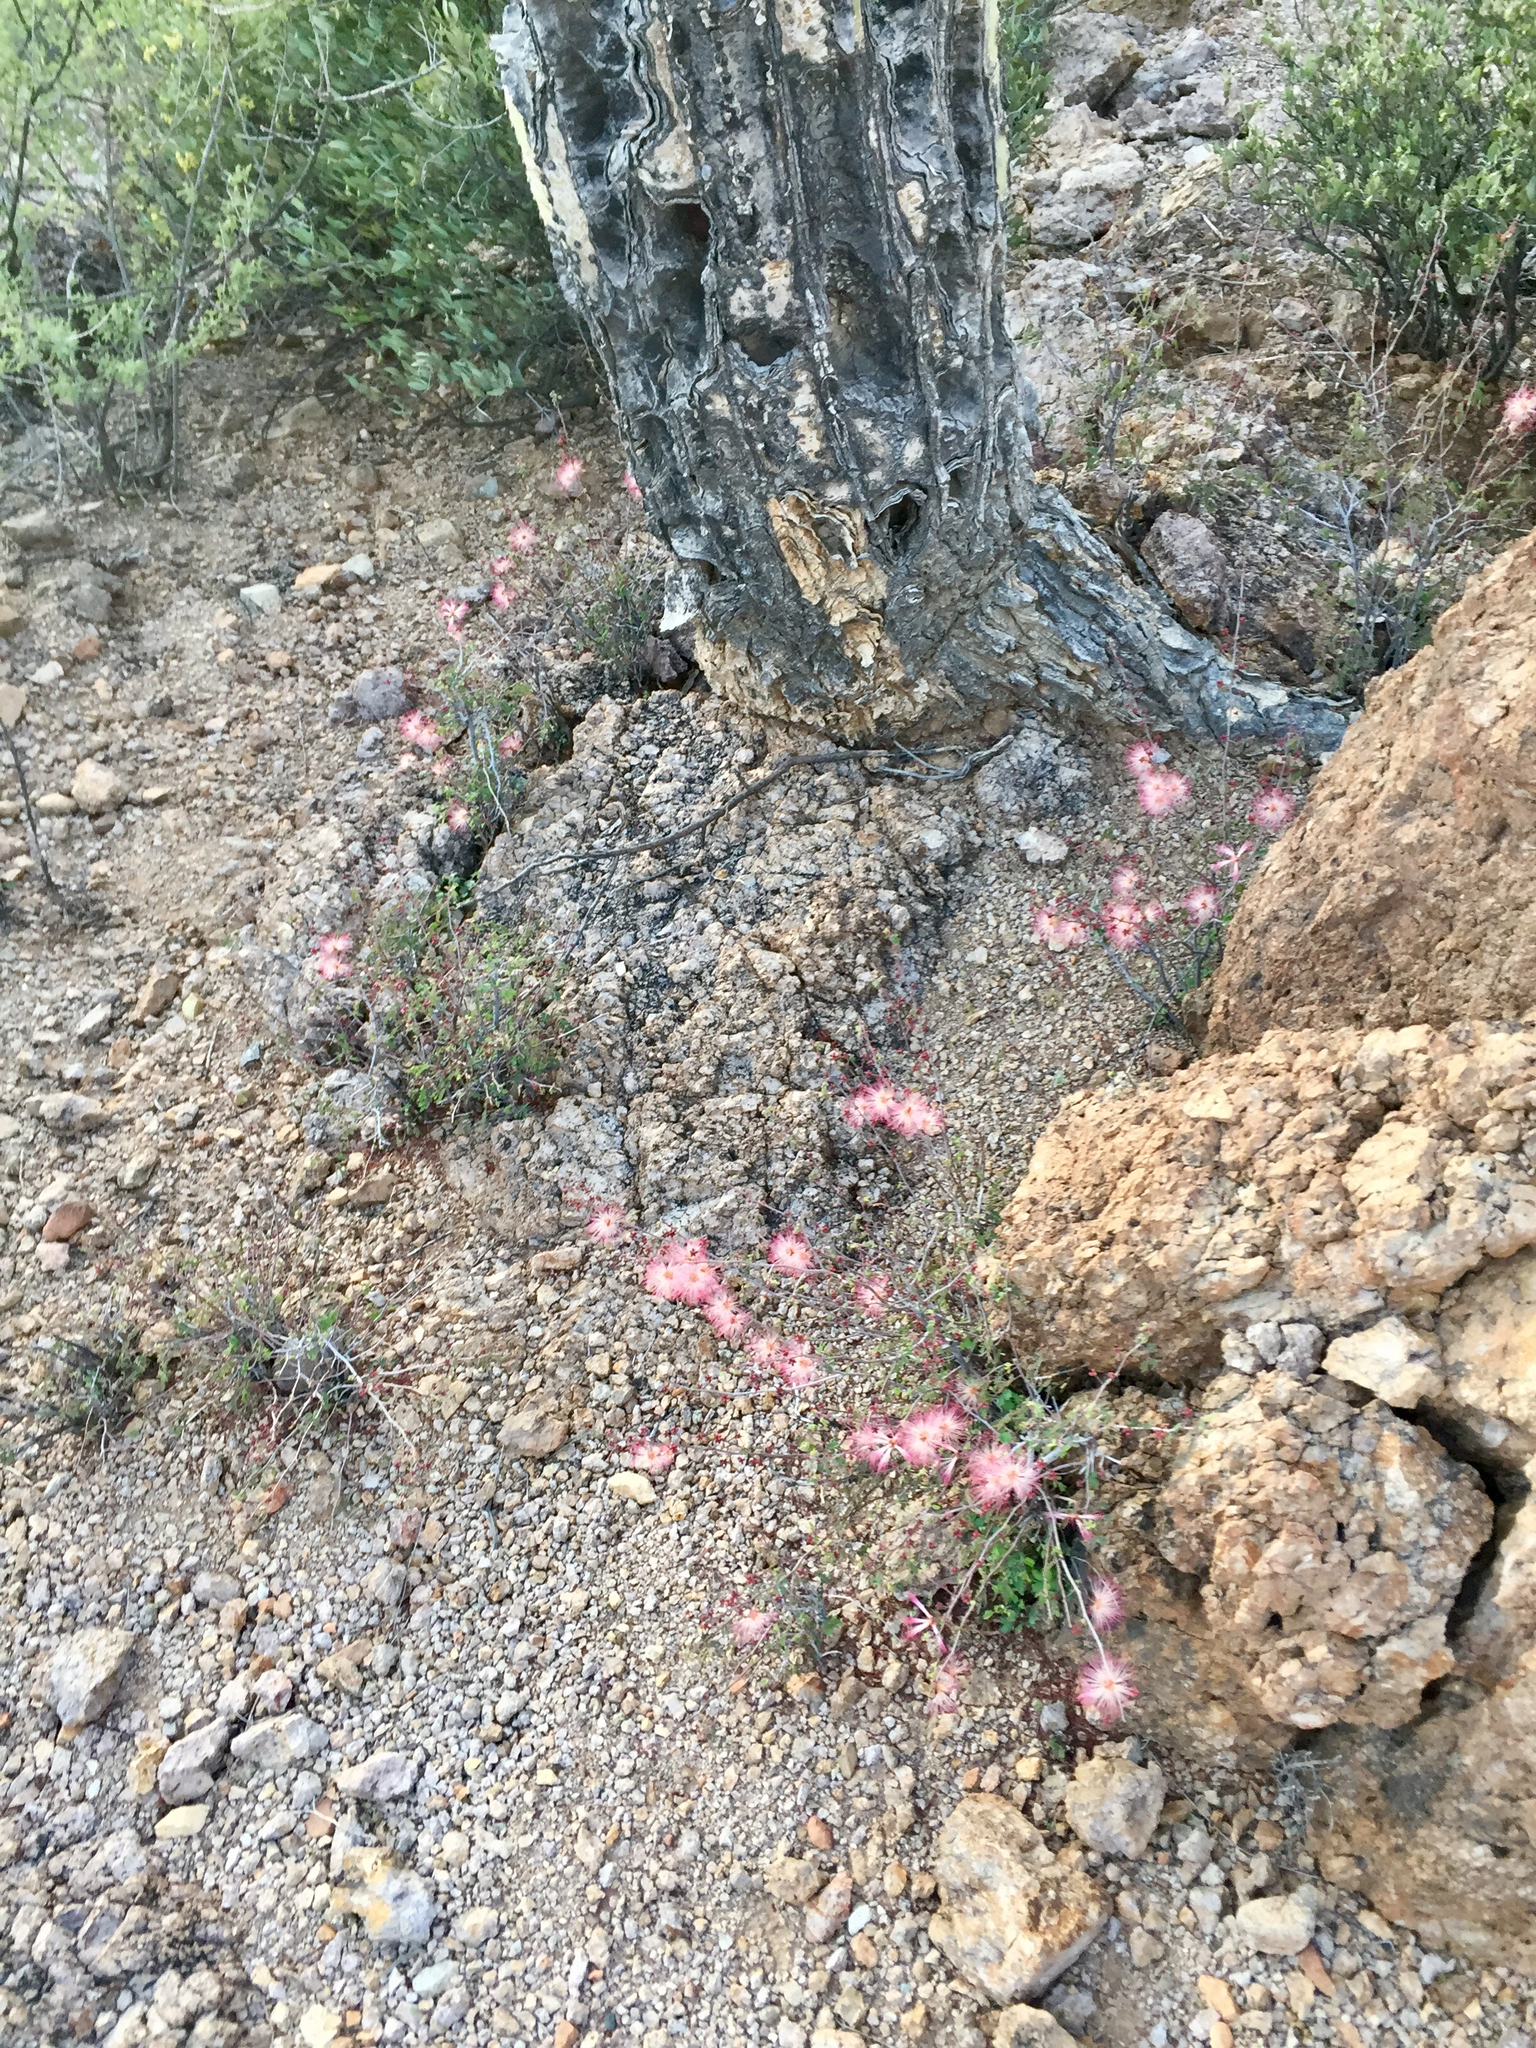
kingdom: Plantae
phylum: Tracheophyta
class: Magnoliopsida
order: Fabales
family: Fabaceae
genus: Calliandra
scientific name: Calliandra eriophylla
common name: Fairy-duster
